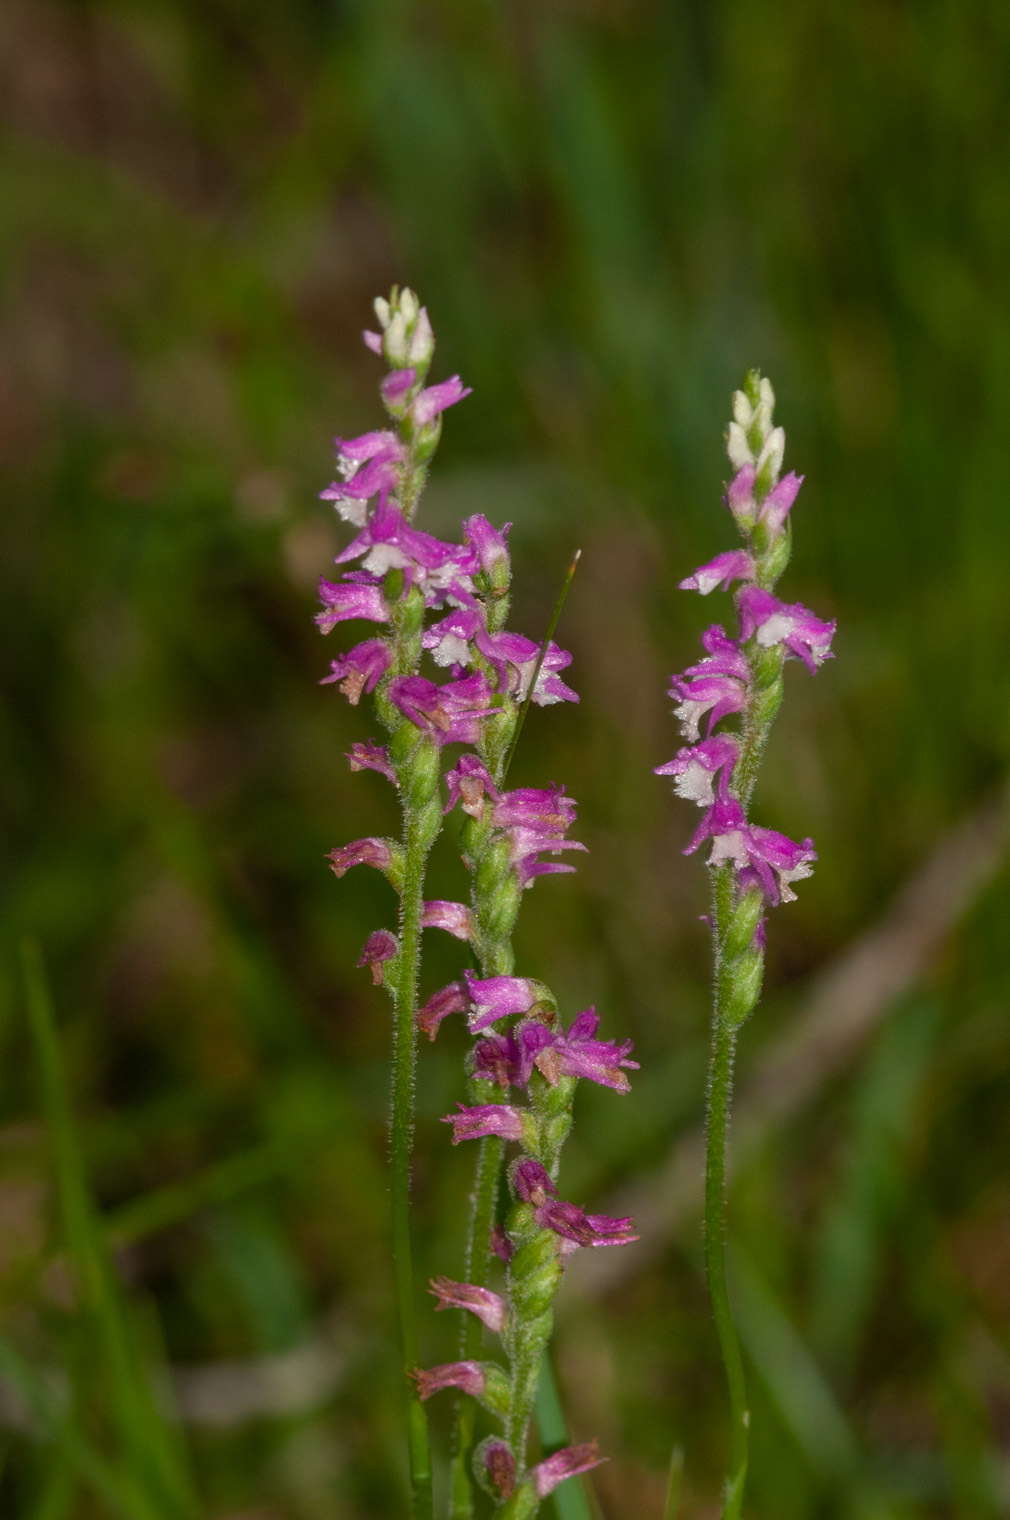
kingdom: Plantae
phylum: Tracheophyta
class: Liliopsida
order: Asparagales
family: Orchidaceae
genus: Spiranthes
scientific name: Spiranthes australis
